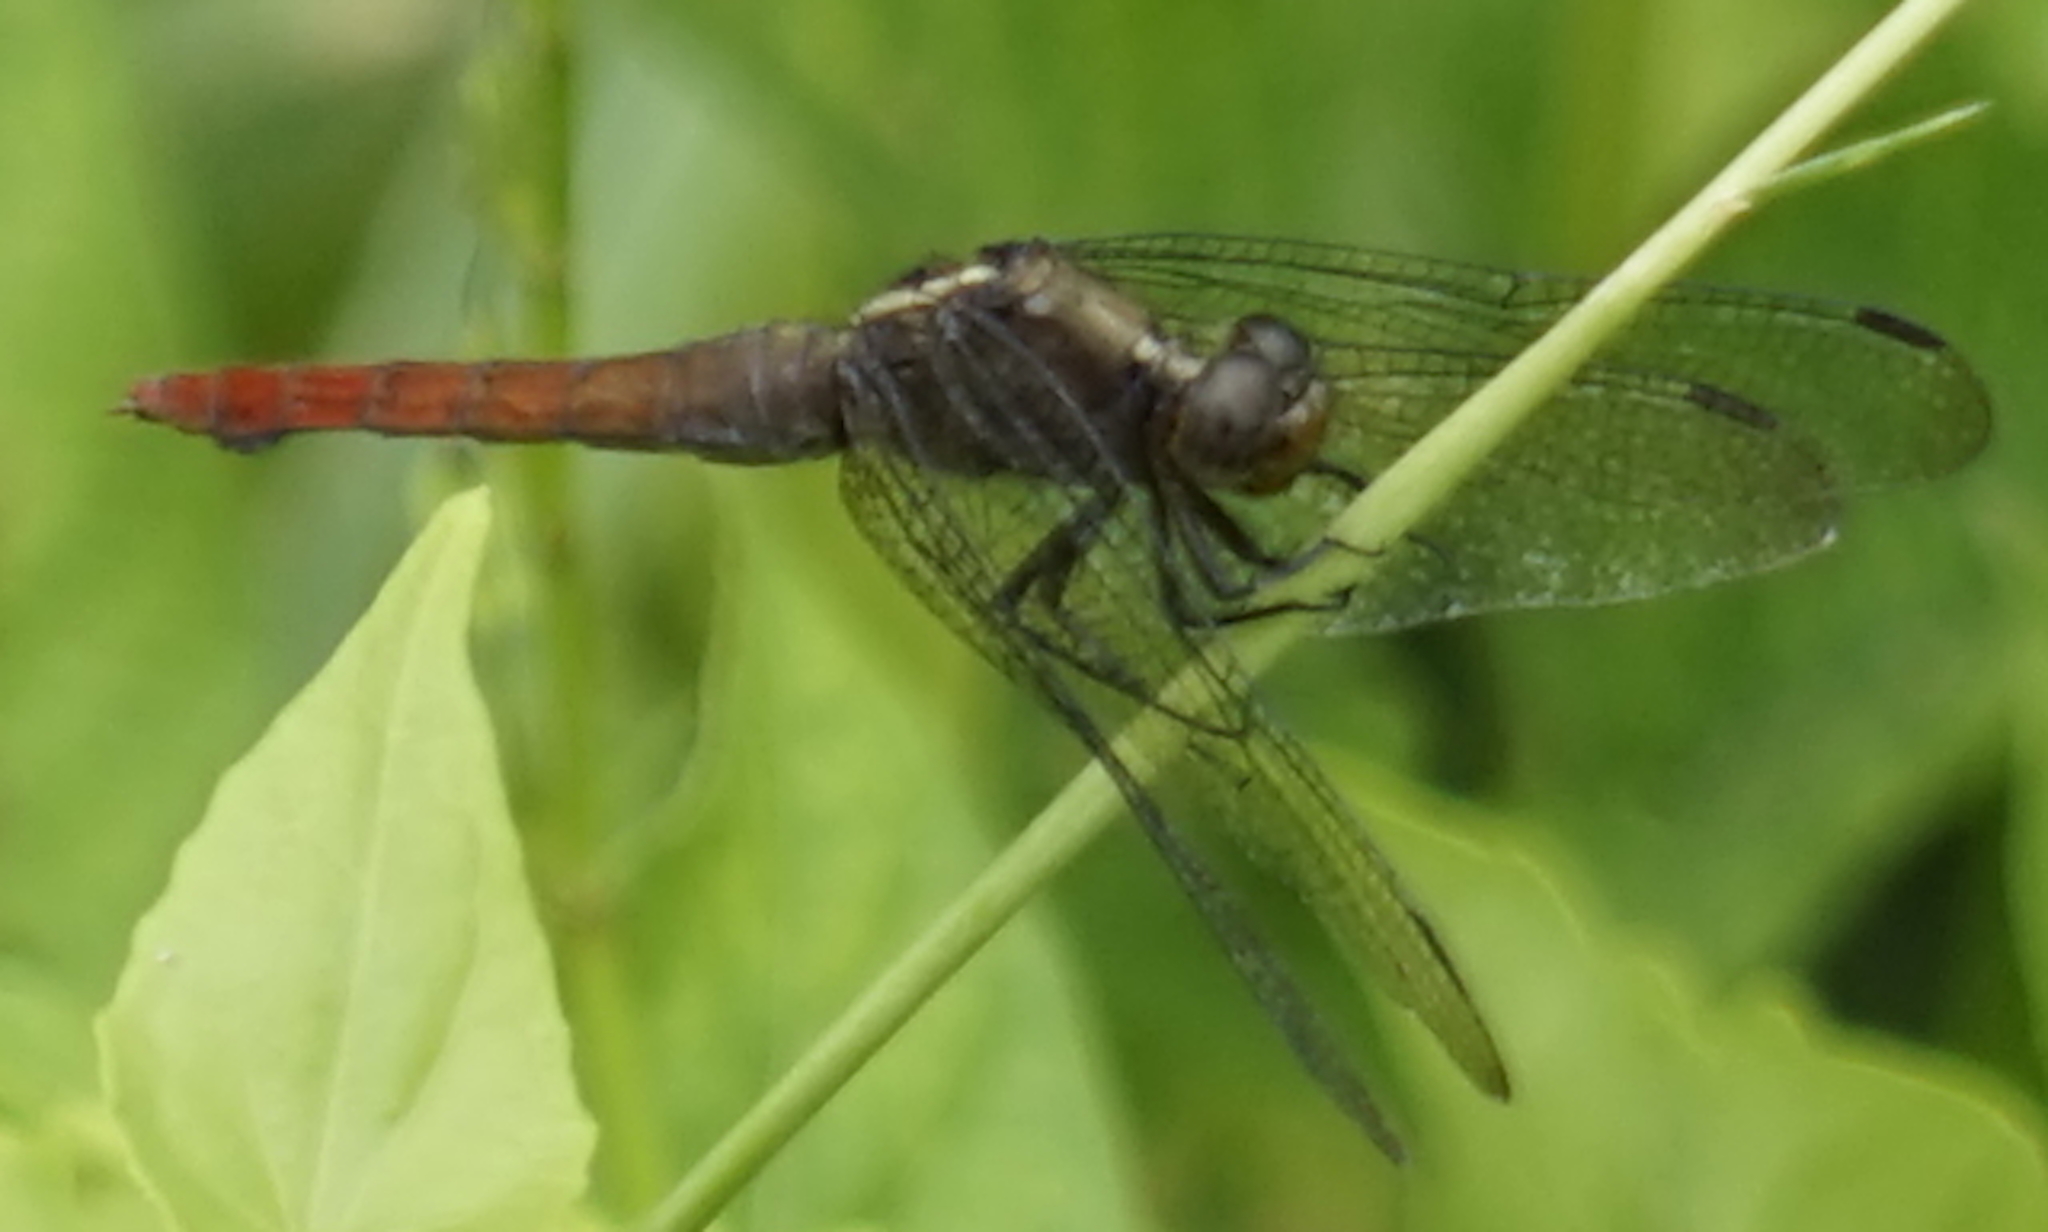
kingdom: Animalia
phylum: Arthropoda
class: Insecta
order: Odonata
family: Libellulidae
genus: Orthetrum
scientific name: Orthetrum schneideri
